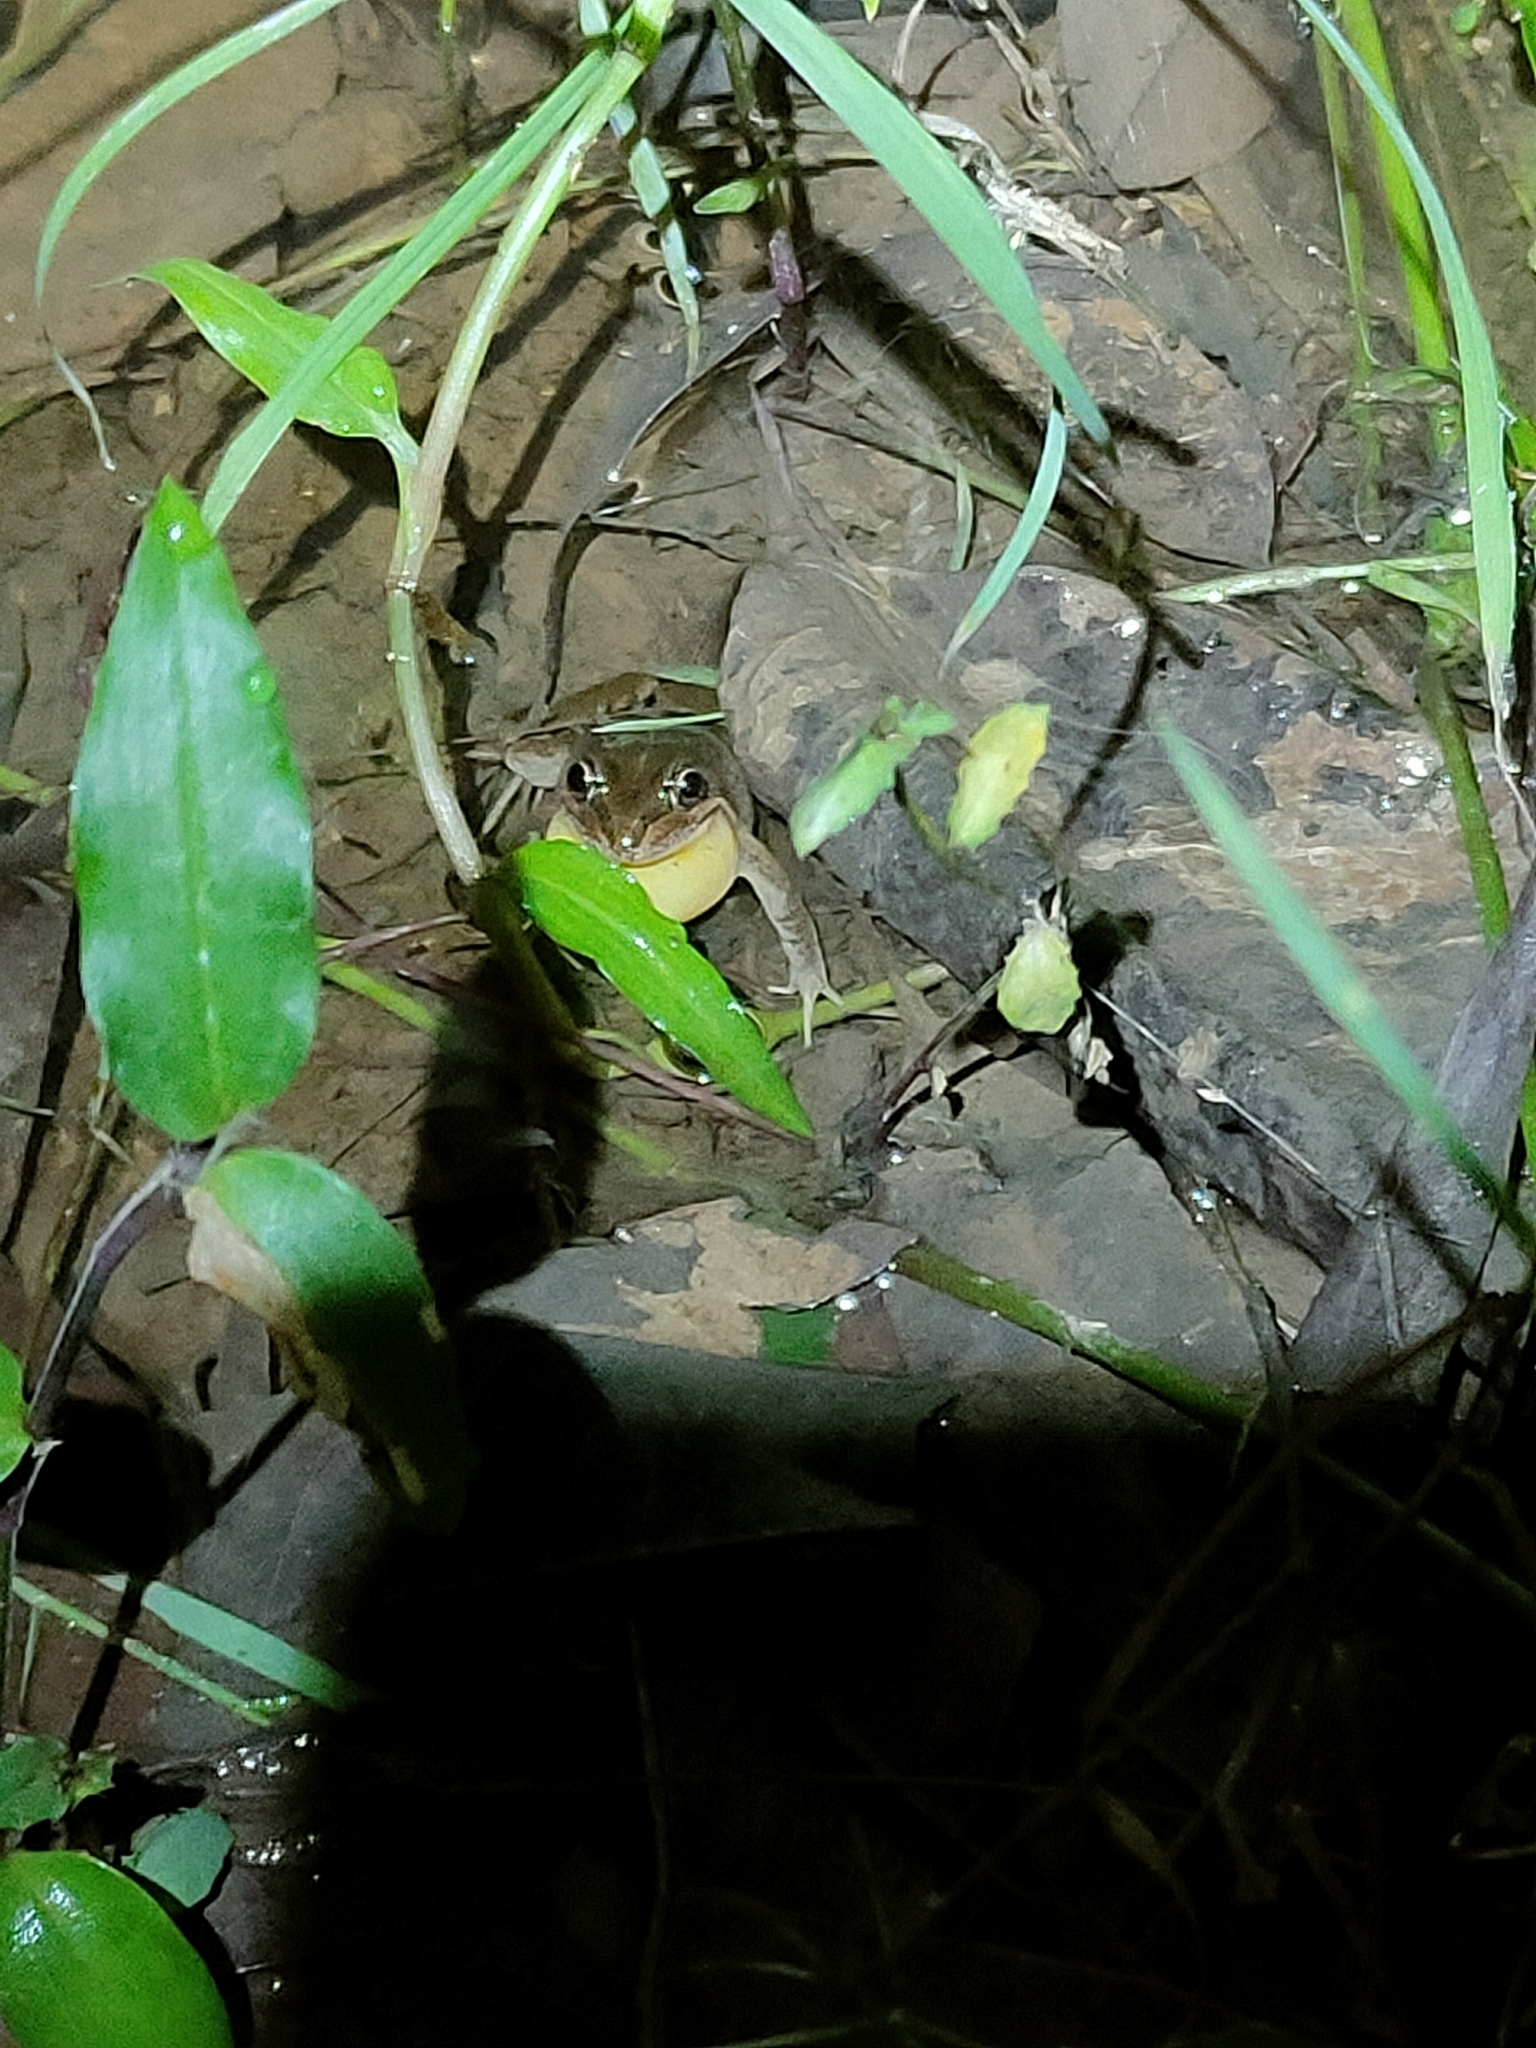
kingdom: Animalia
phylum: Chordata
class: Amphibia
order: Anura
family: Limnodynastidae
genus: Limnodynastes
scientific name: Limnodynastes tasmaniensis
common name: Spotted marsh frog
